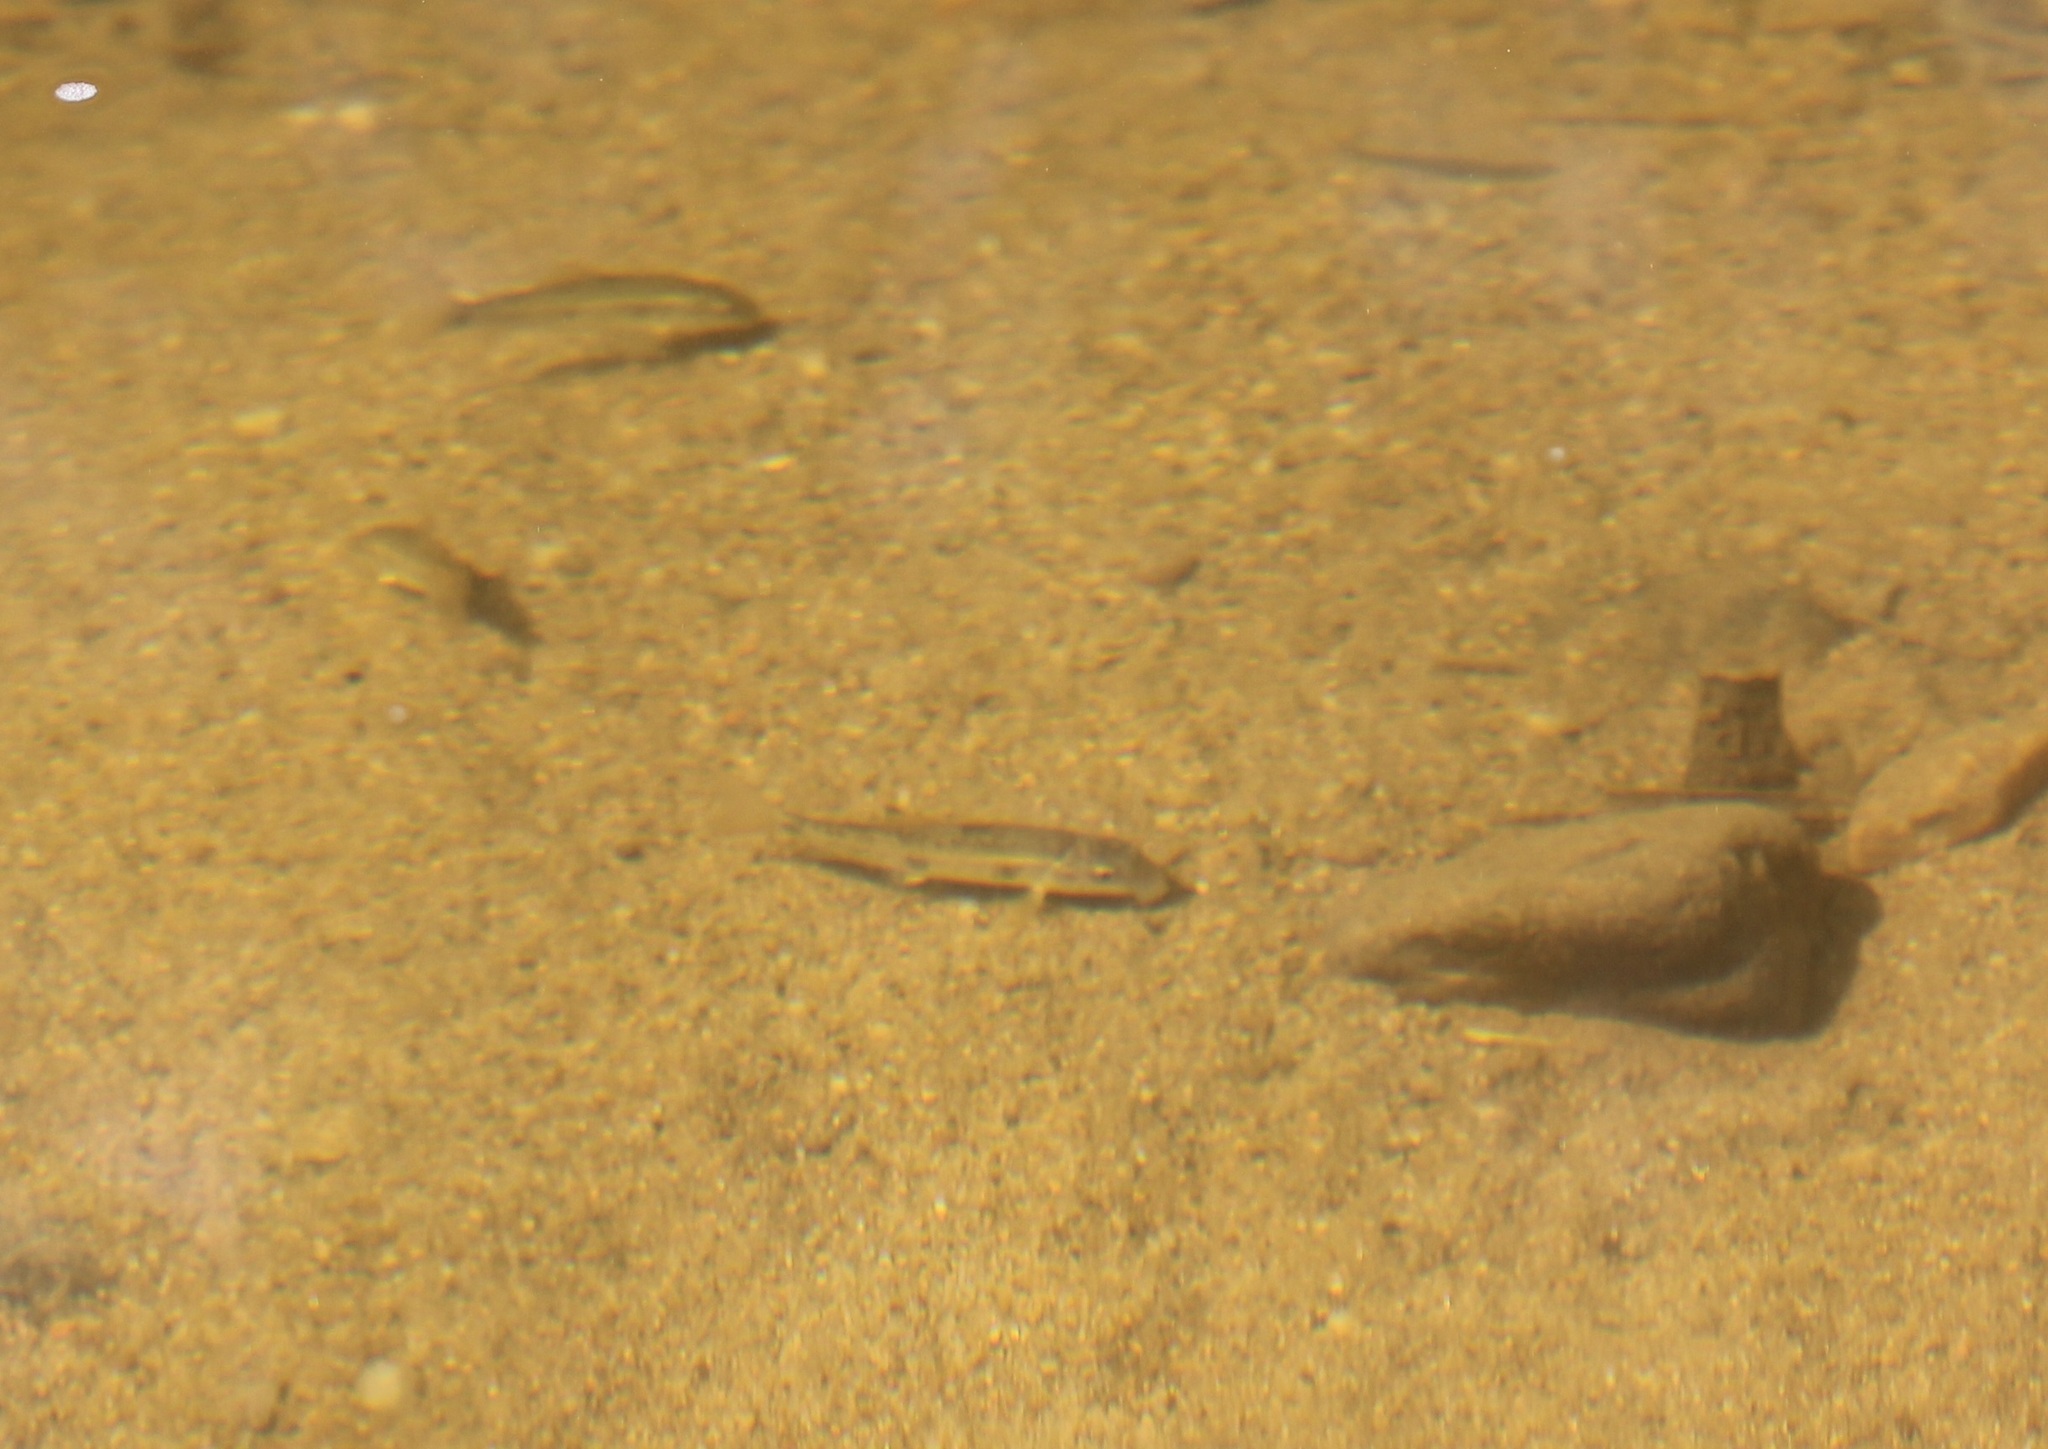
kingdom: Animalia
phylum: Chordata
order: Cypriniformes
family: Catostomidae
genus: Catostomus
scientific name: Catostomus commersonii
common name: White sucker
